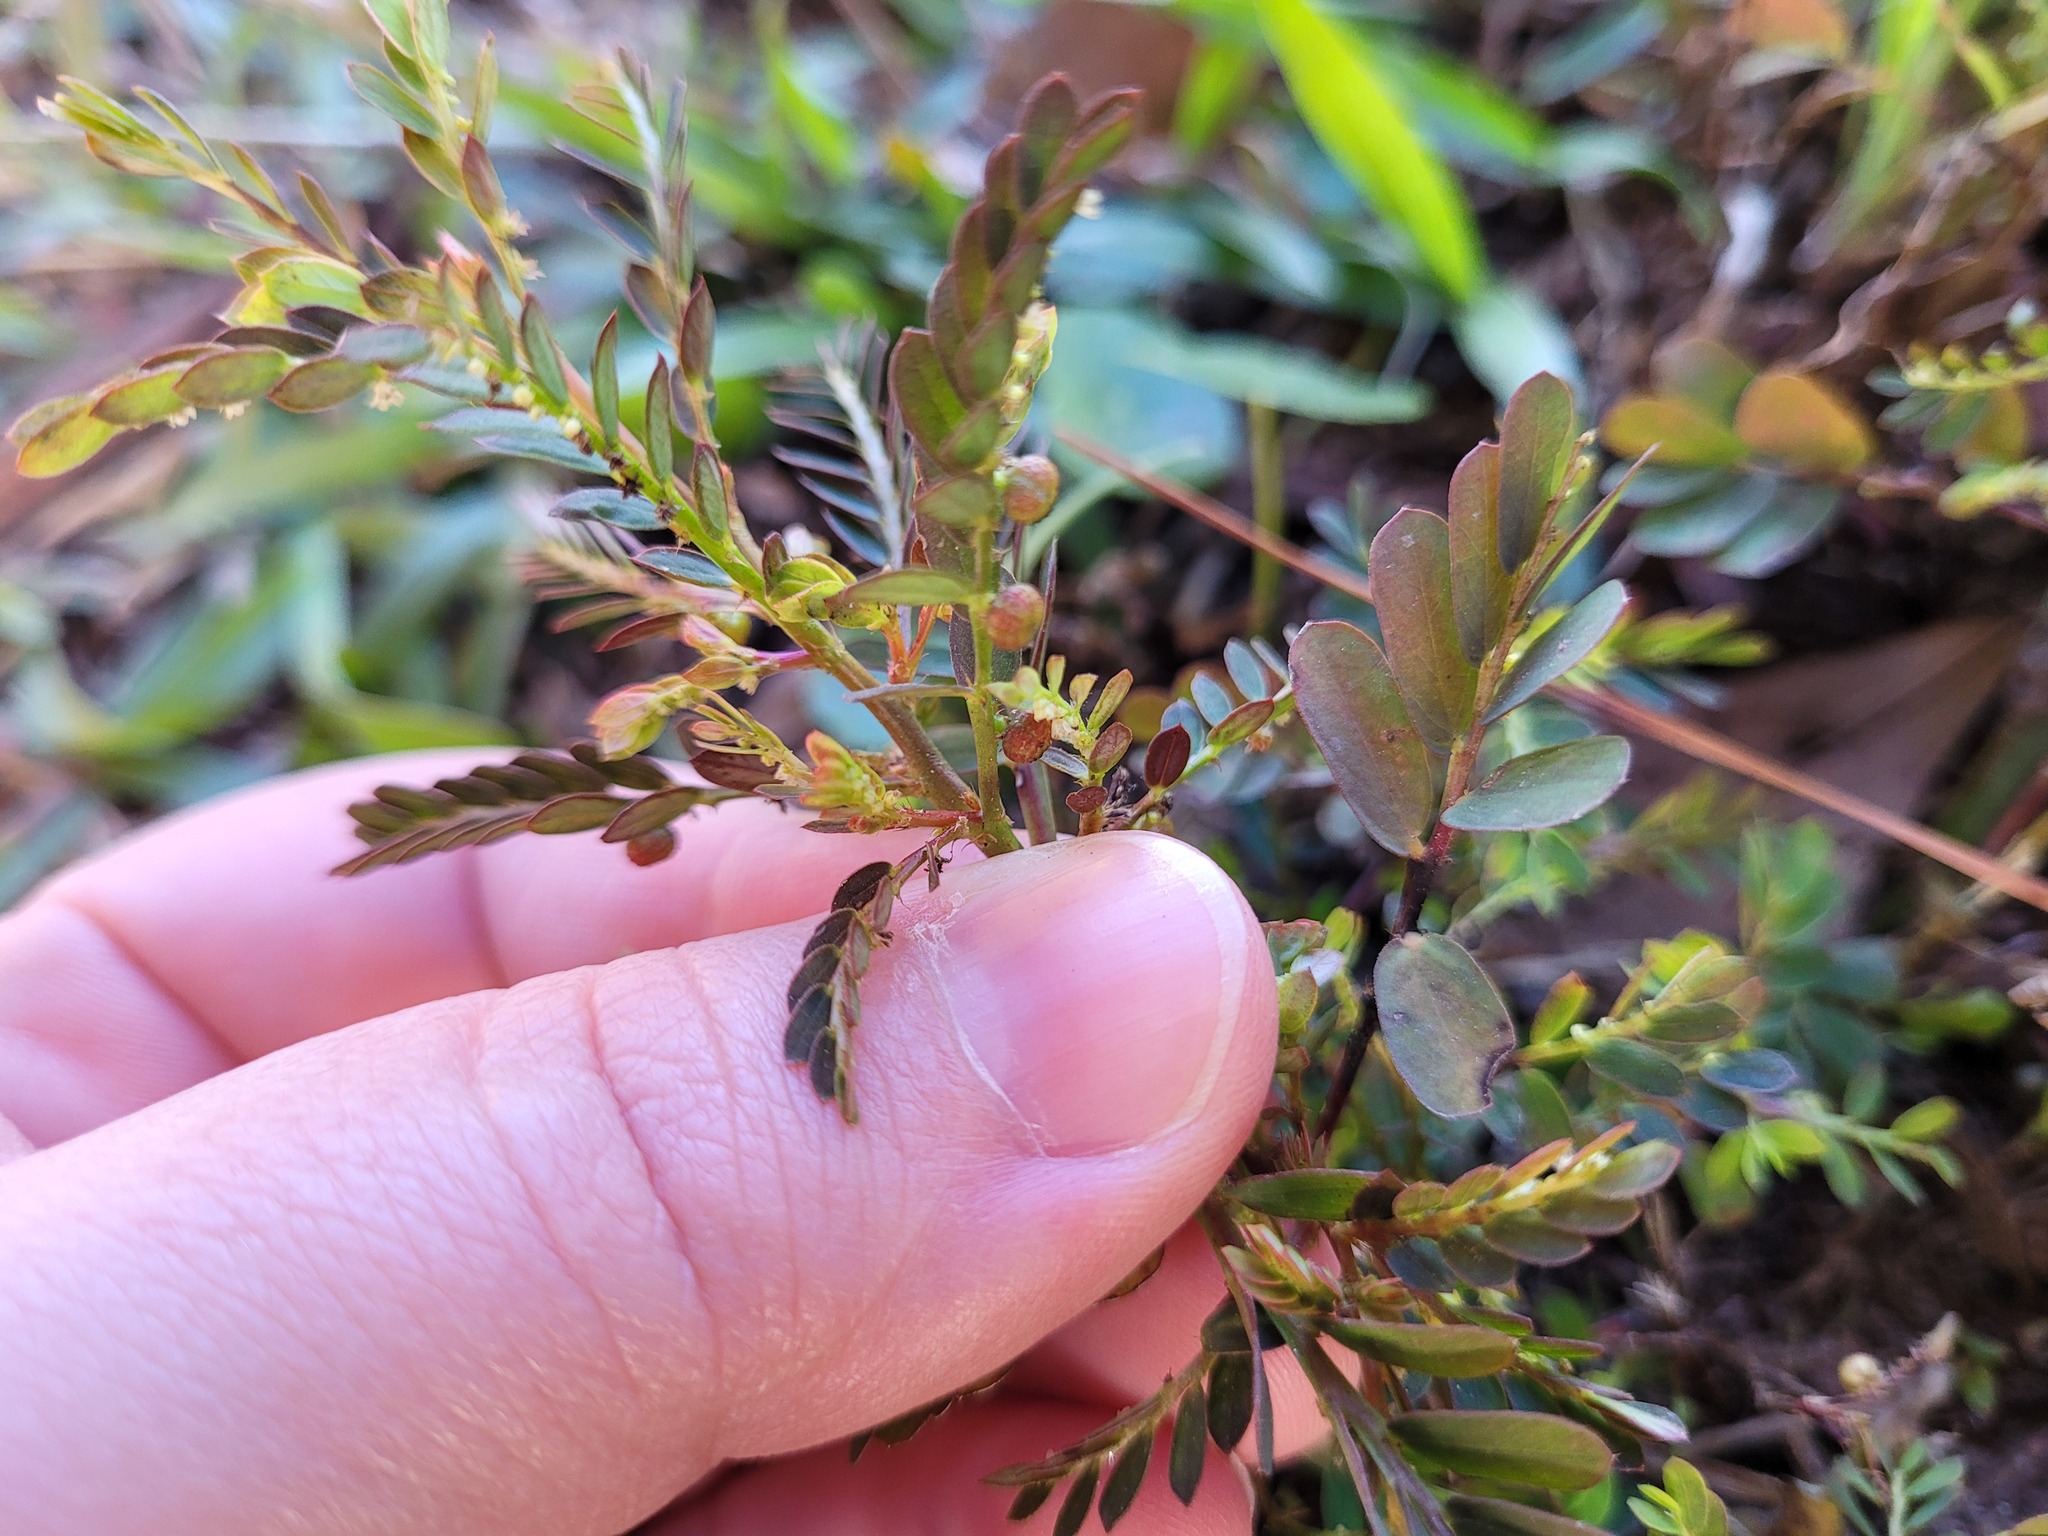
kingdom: Plantae
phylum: Tracheophyta
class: Magnoliopsida
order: Malpighiales
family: Phyllanthaceae
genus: Phyllanthus
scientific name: Phyllanthus urinaria
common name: Chamber bitter
